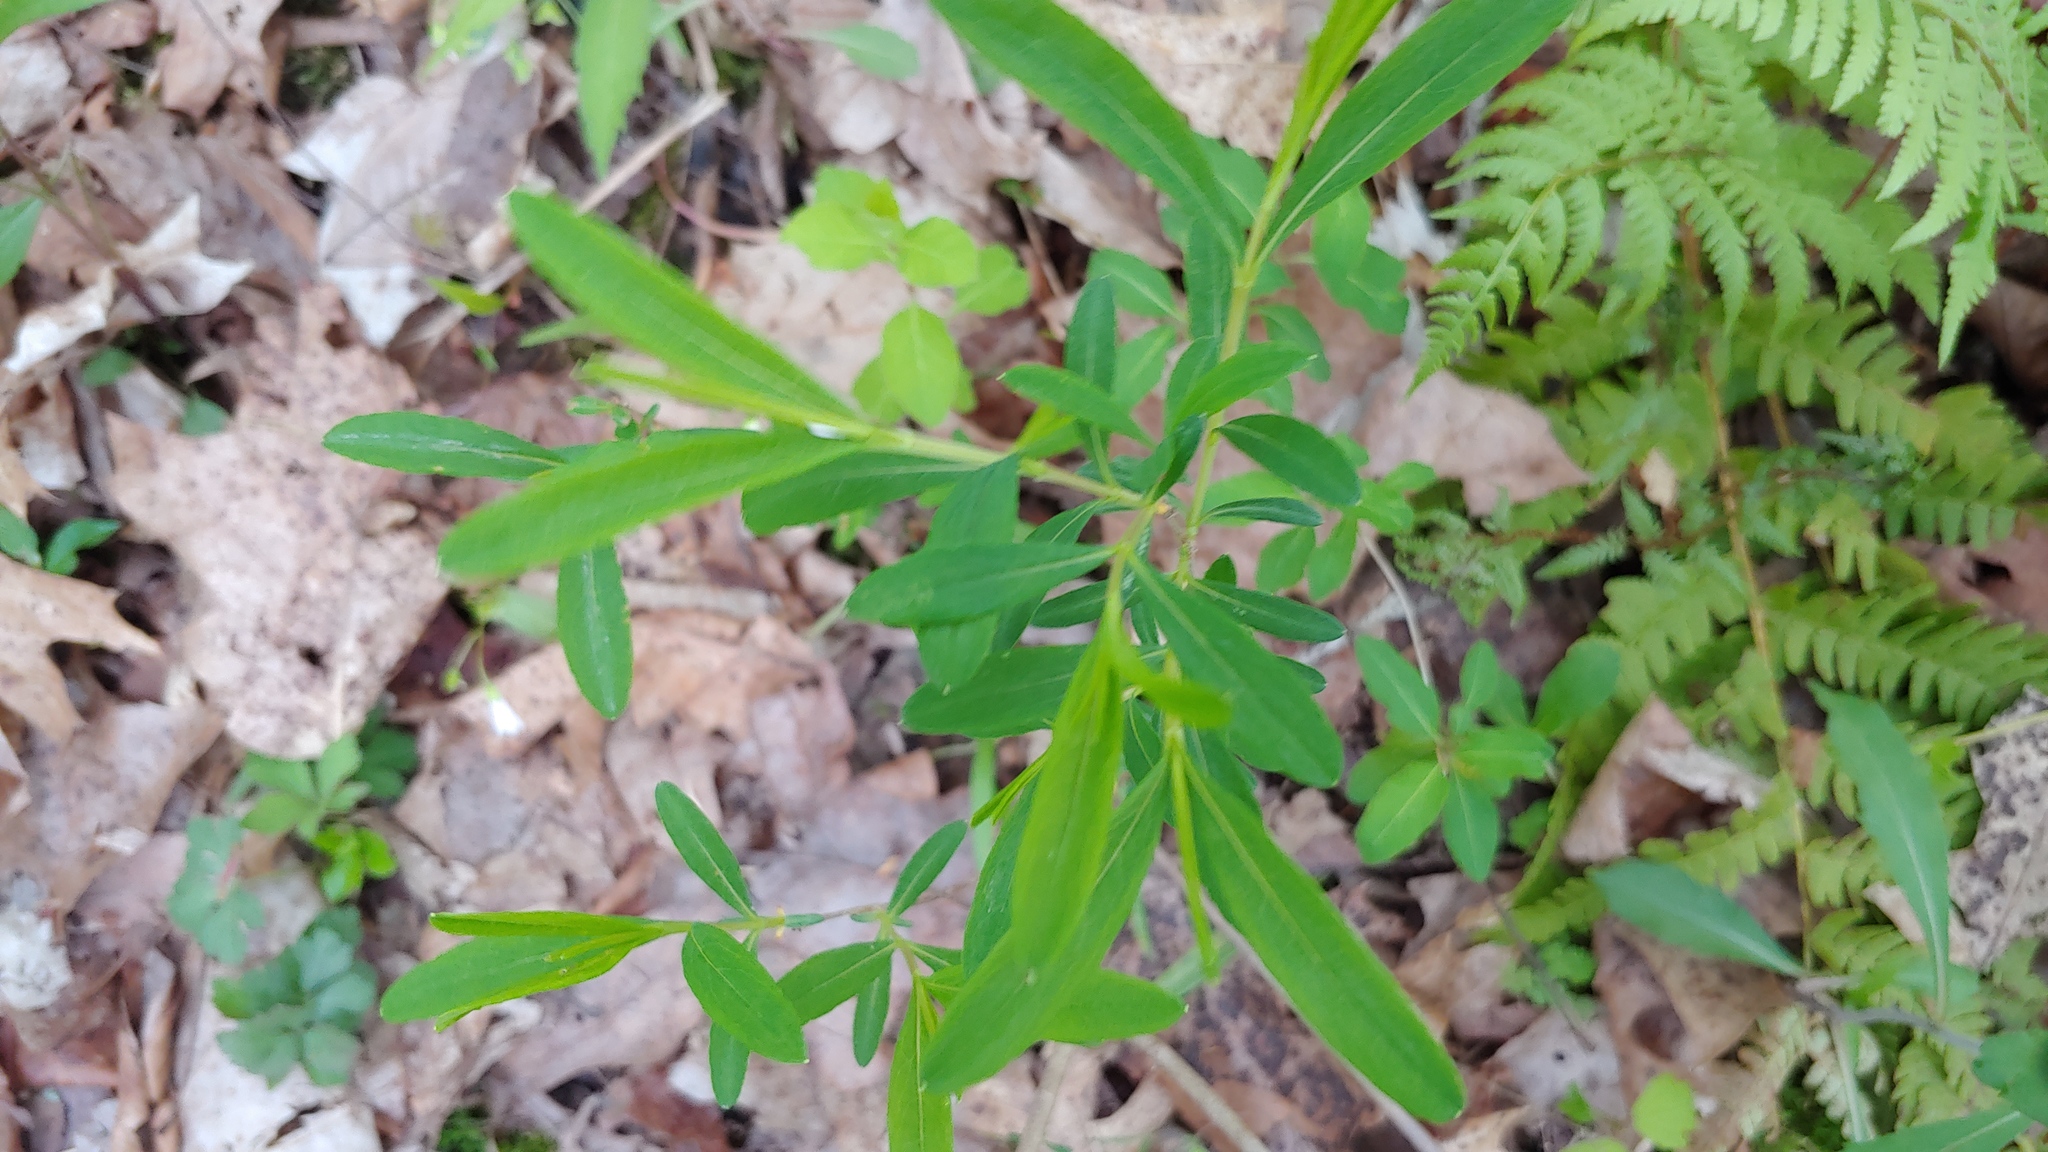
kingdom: Plantae
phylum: Tracheophyta
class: Magnoliopsida
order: Malpighiales
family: Hypericaceae
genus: Hypericum
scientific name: Hypericum prolificum
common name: Shrubby st. john's-wort
